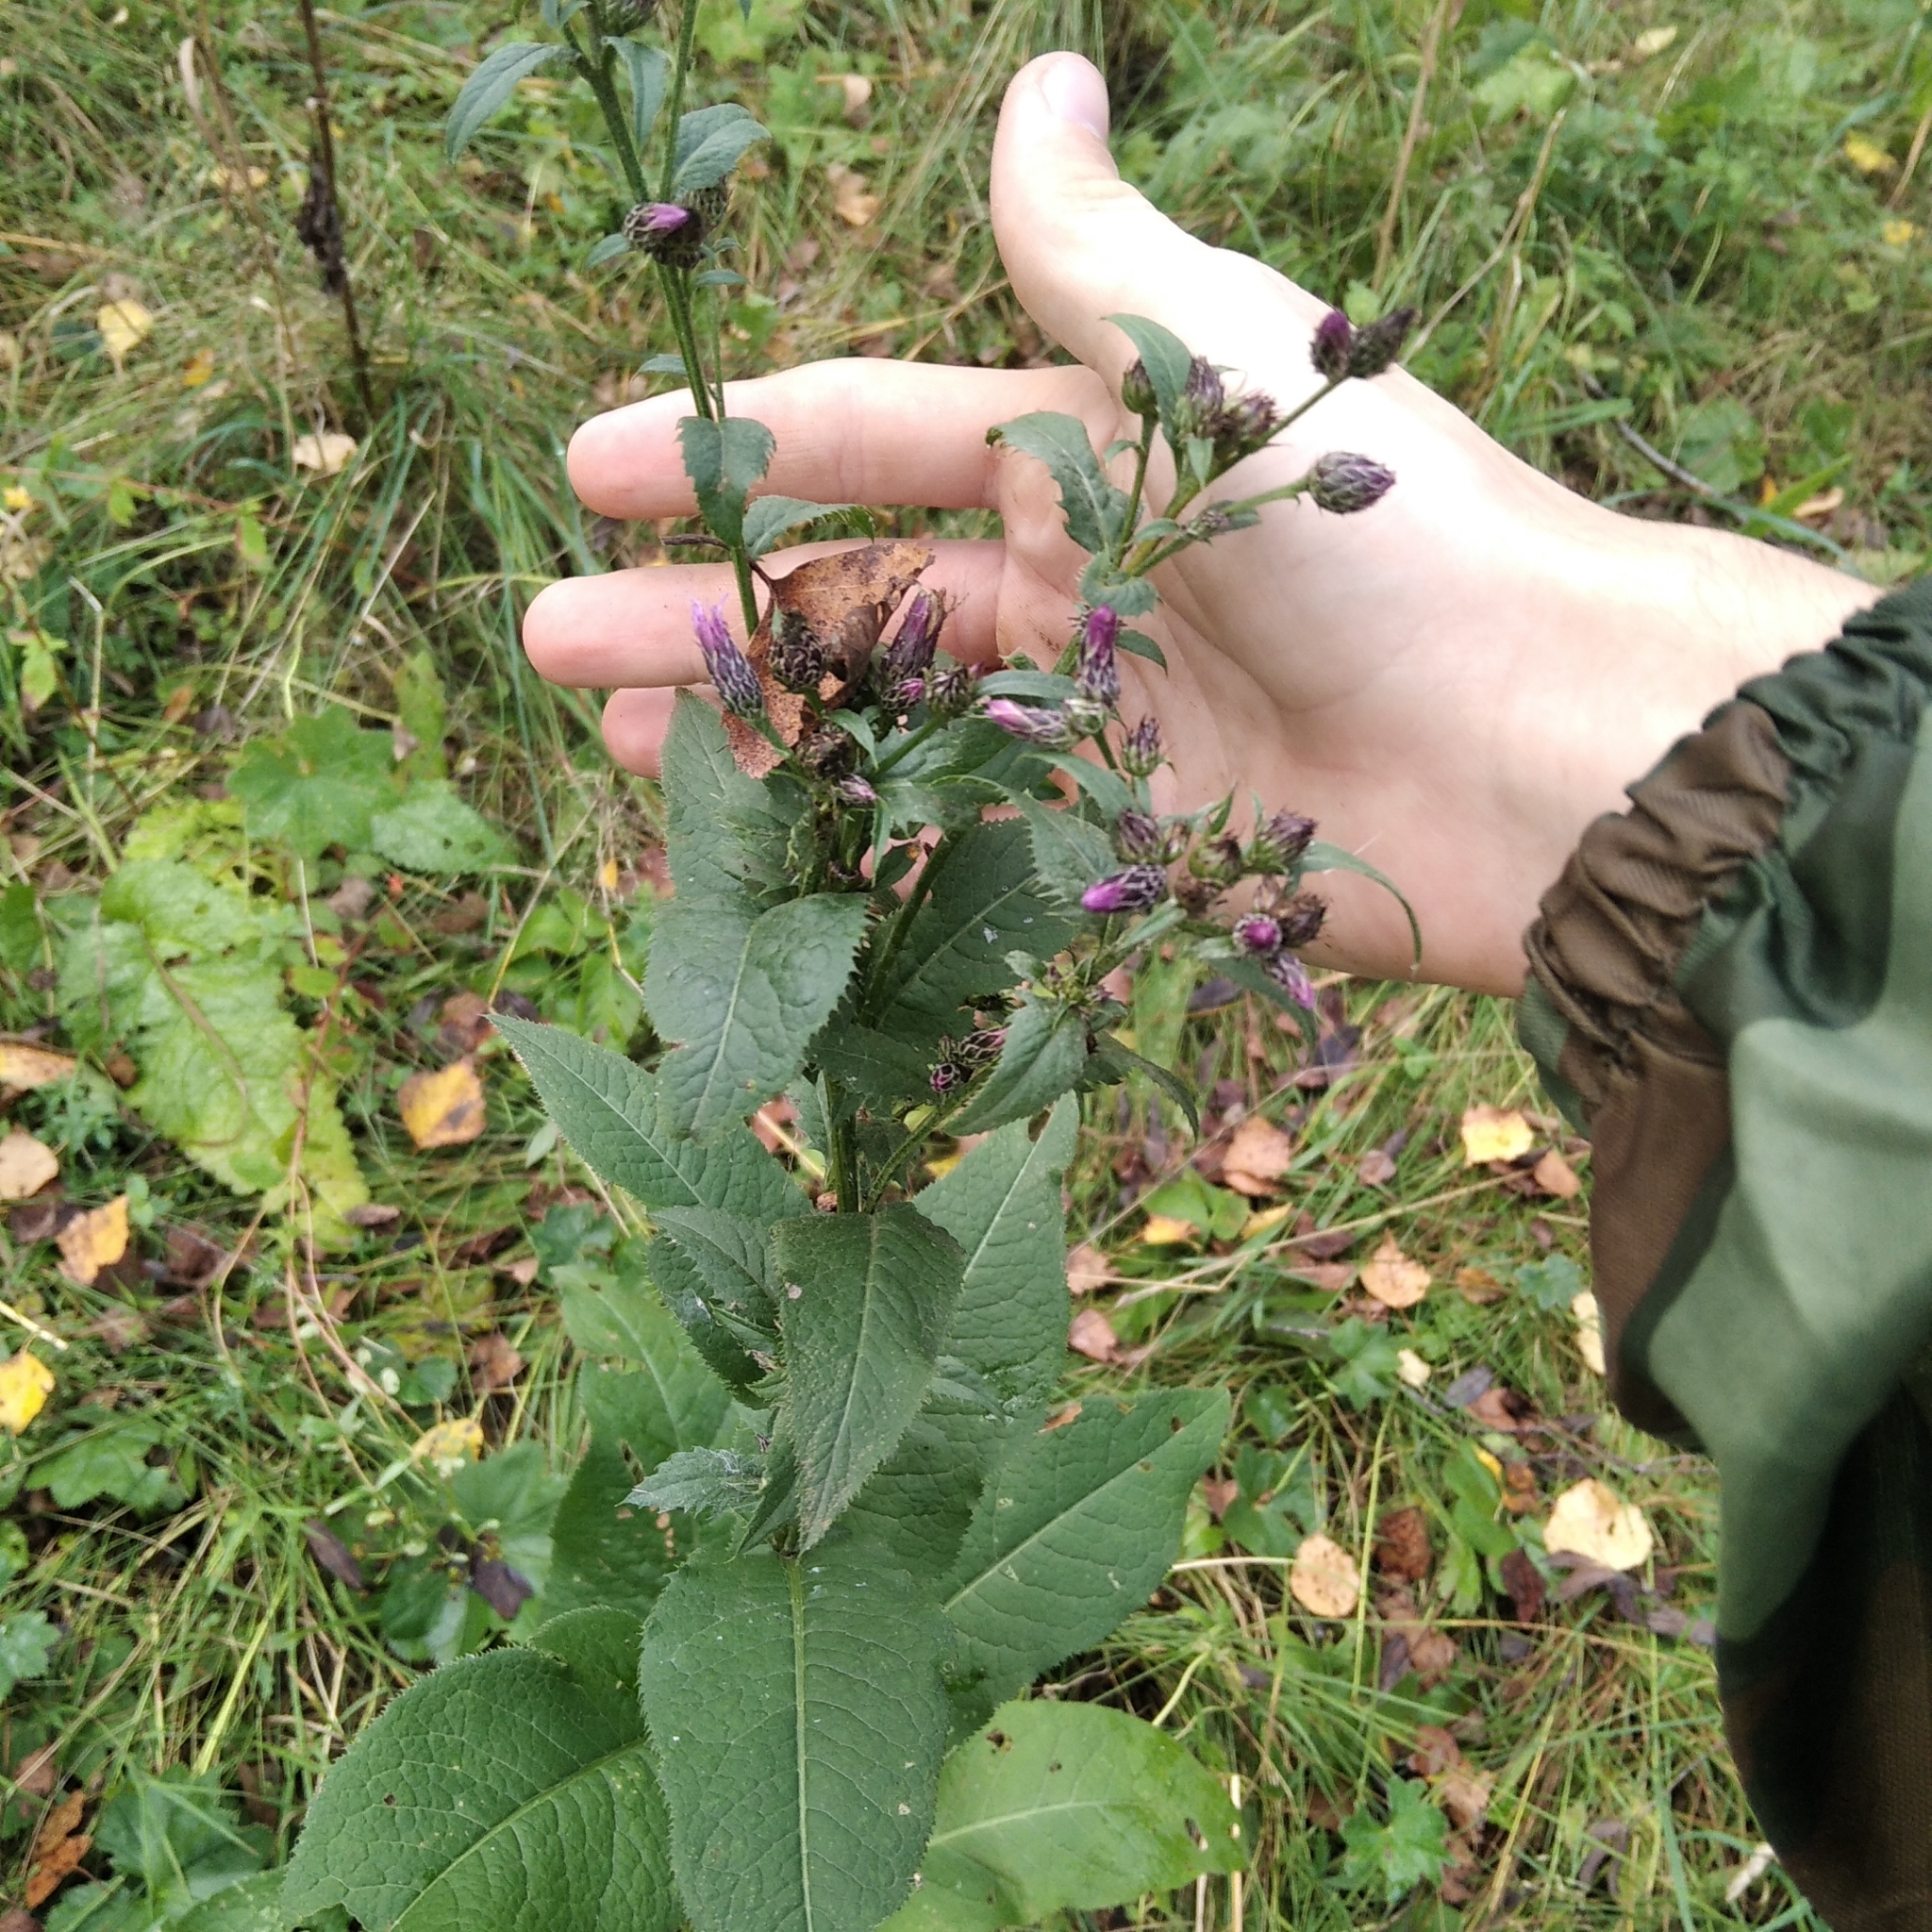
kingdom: Plantae
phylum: Tracheophyta
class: Magnoliopsida
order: Asterales
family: Asteraceae
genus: Serratula
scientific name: Serratula tinctoria
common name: Saw-wort
